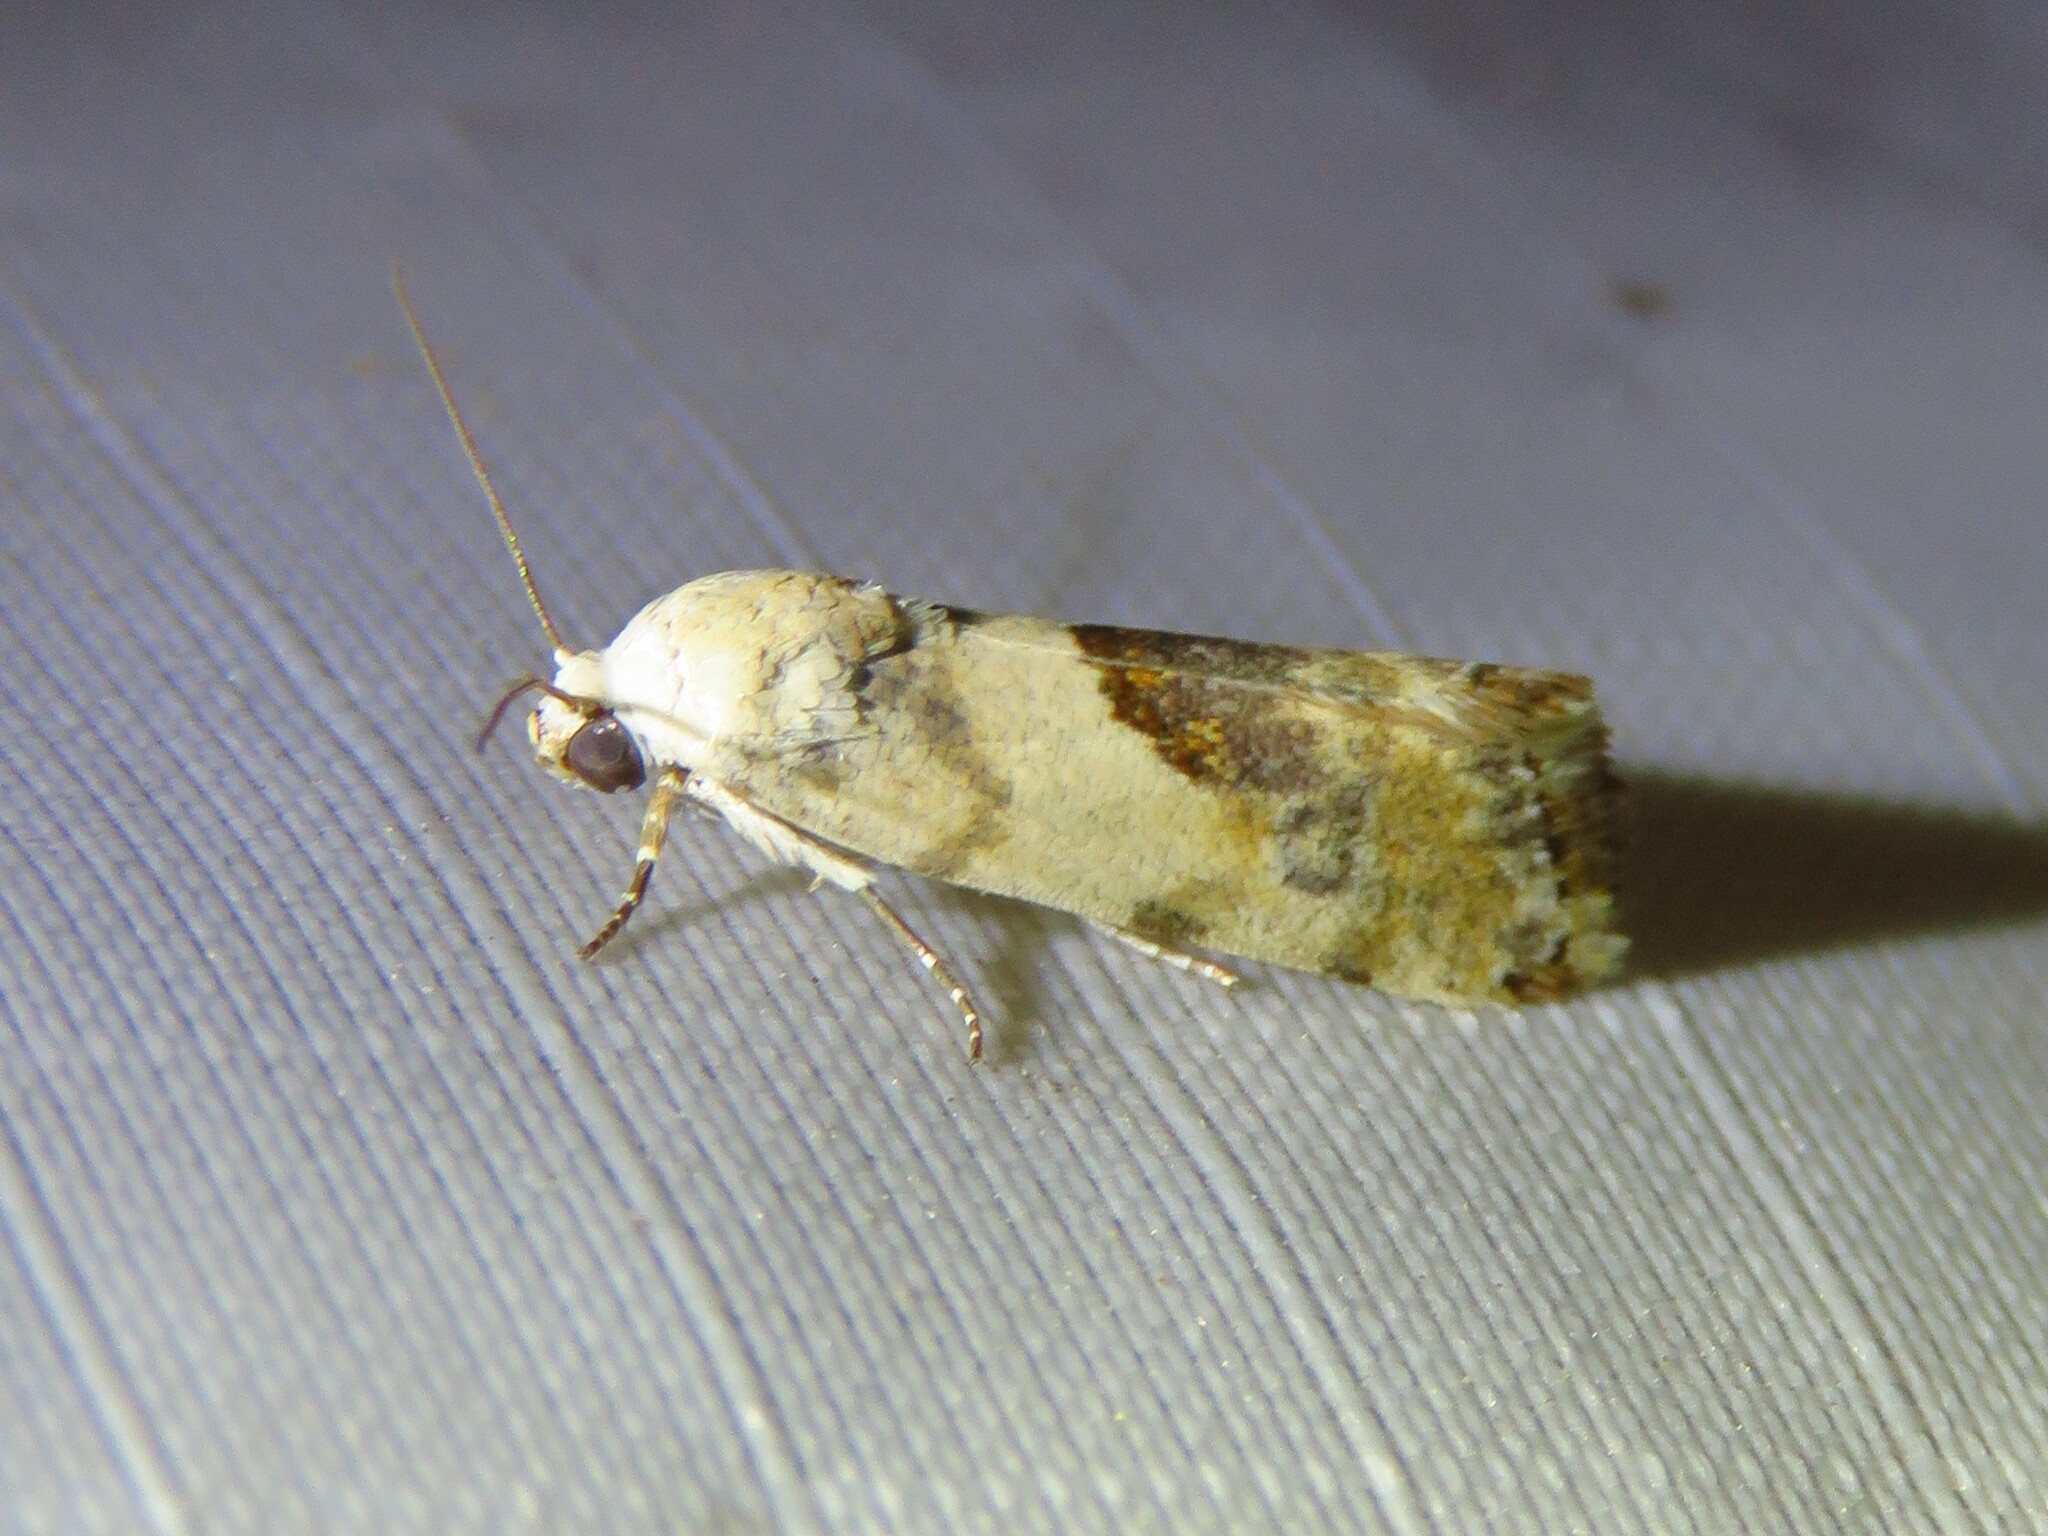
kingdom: Animalia
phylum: Arthropoda
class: Insecta
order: Lepidoptera
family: Noctuidae
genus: Acontia
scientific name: Acontia candefacta
